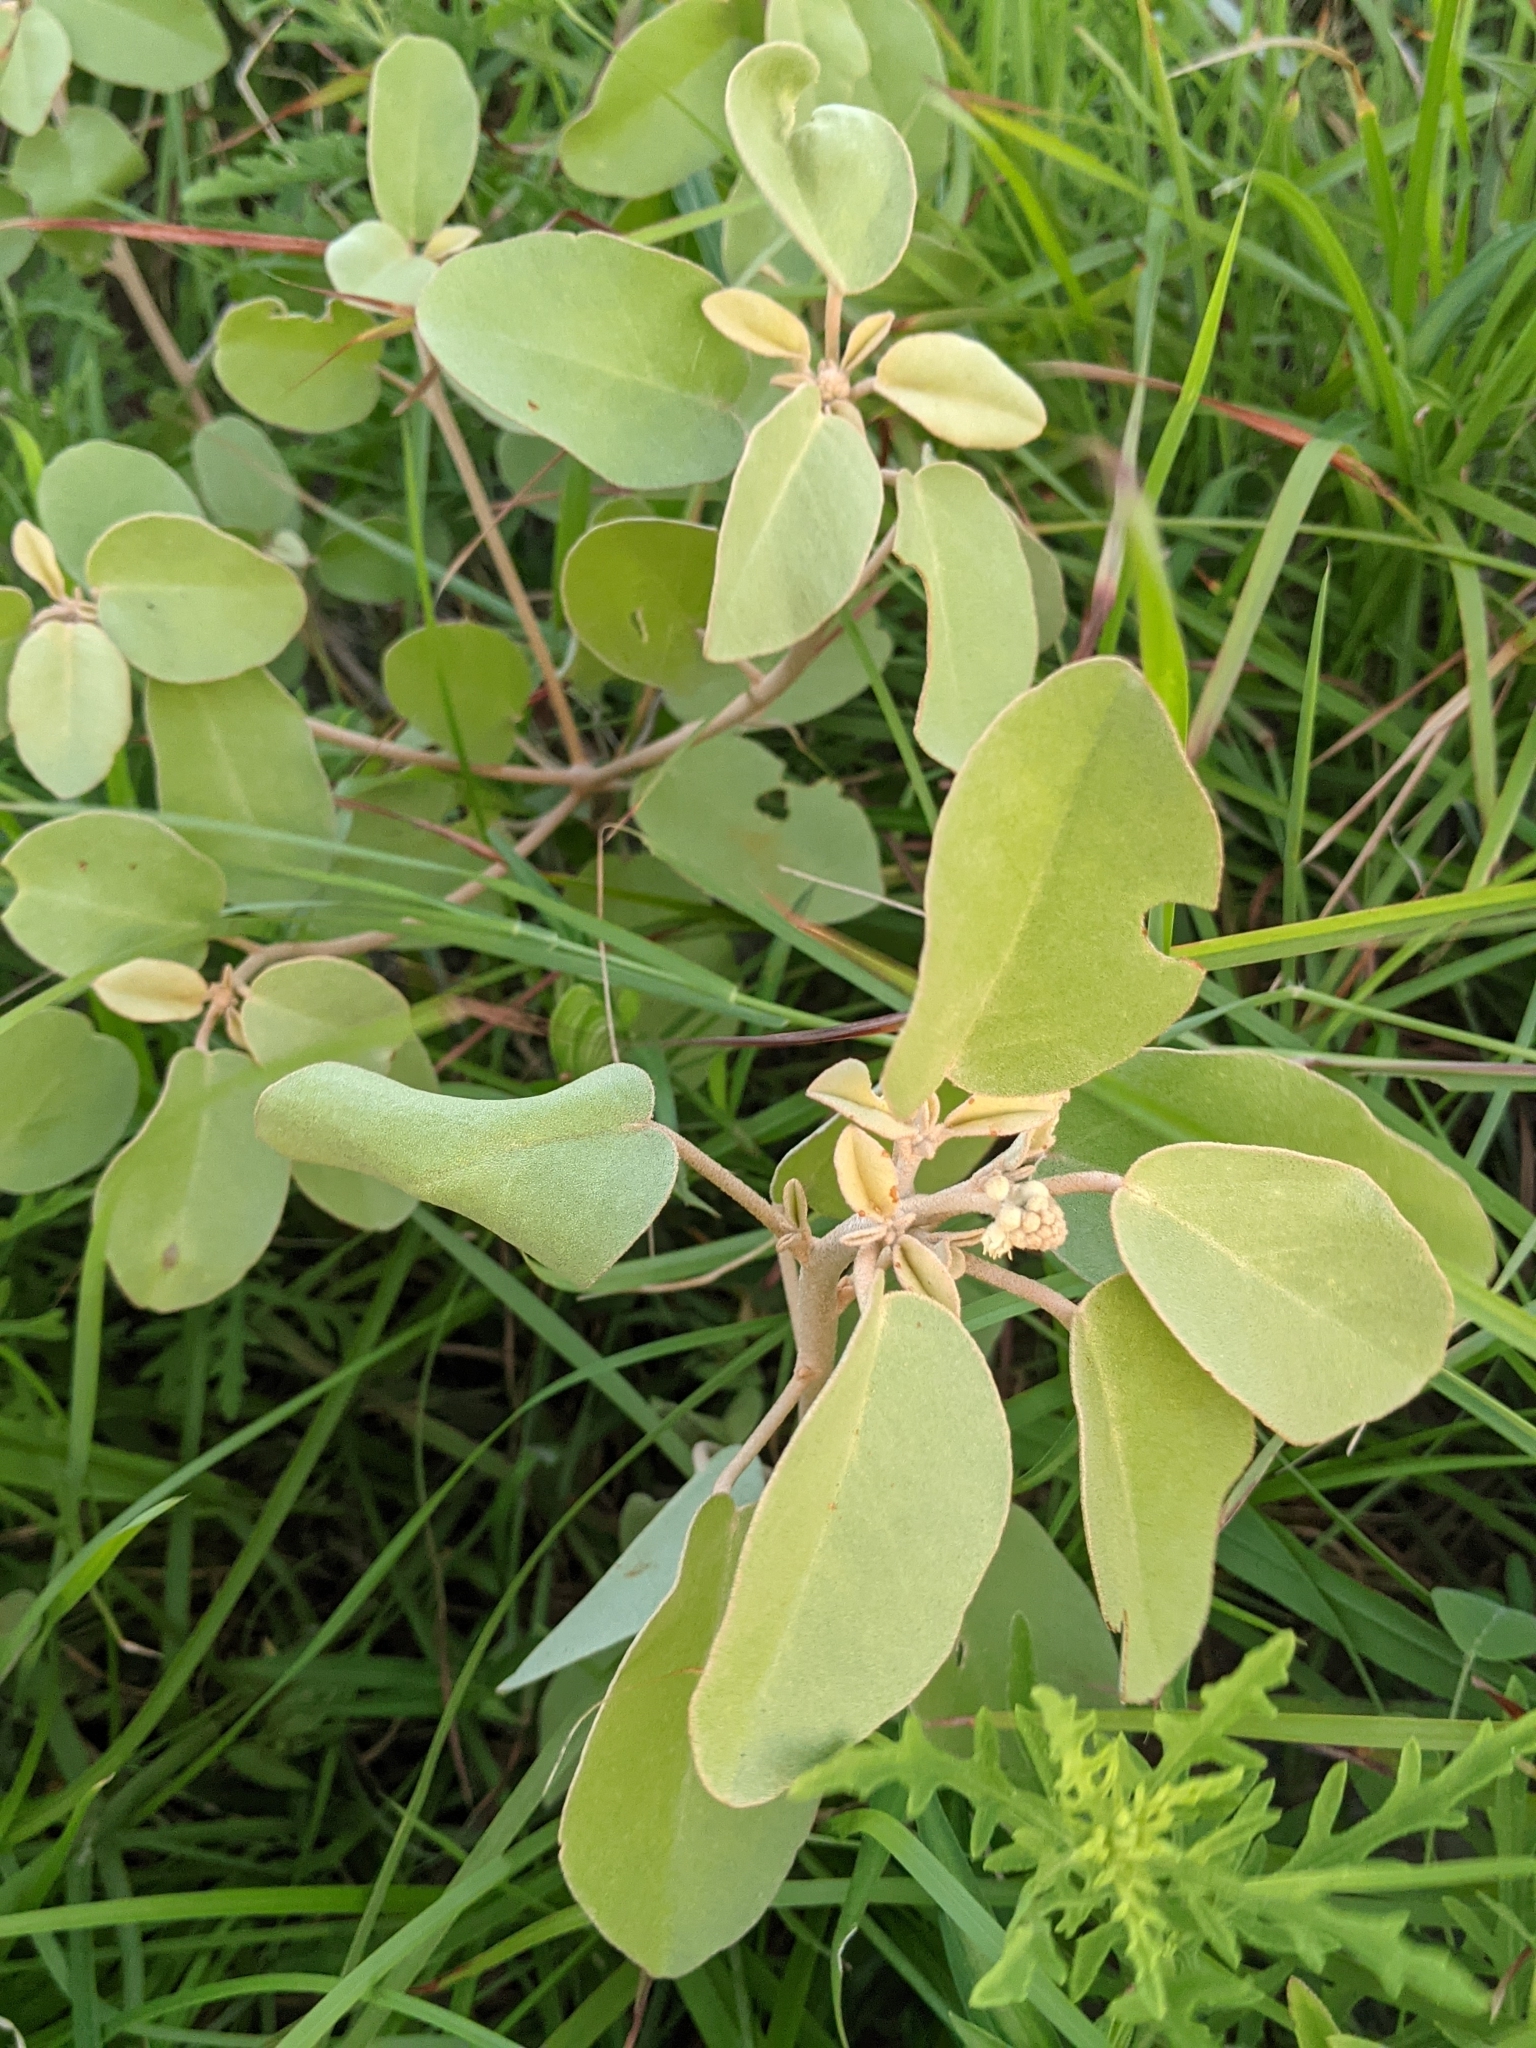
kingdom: Plantae
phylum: Tracheophyta
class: Magnoliopsida
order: Malpighiales
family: Euphorbiaceae
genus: Croton
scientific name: Croton punctatus
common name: Beach-tea
